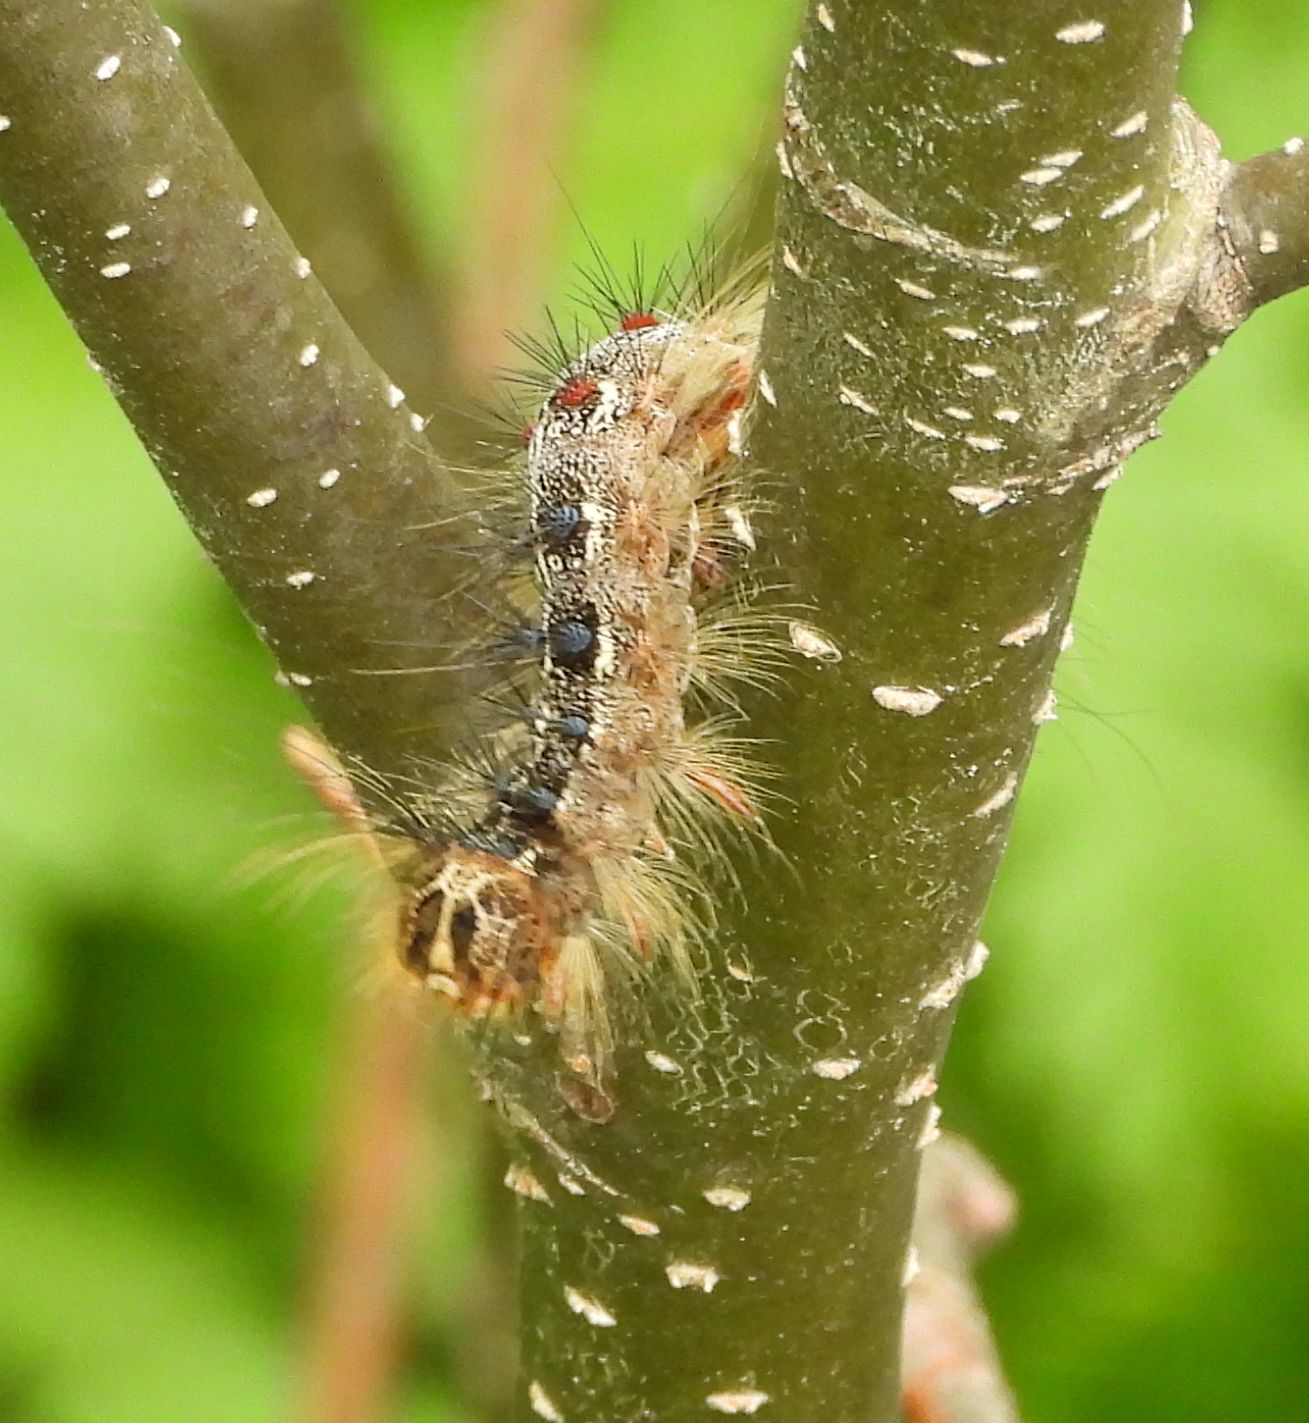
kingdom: Animalia
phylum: Arthropoda
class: Insecta
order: Lepidoptera
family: Erebidae
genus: Lymantria
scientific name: Lymantria dispar
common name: Gypsy moth
